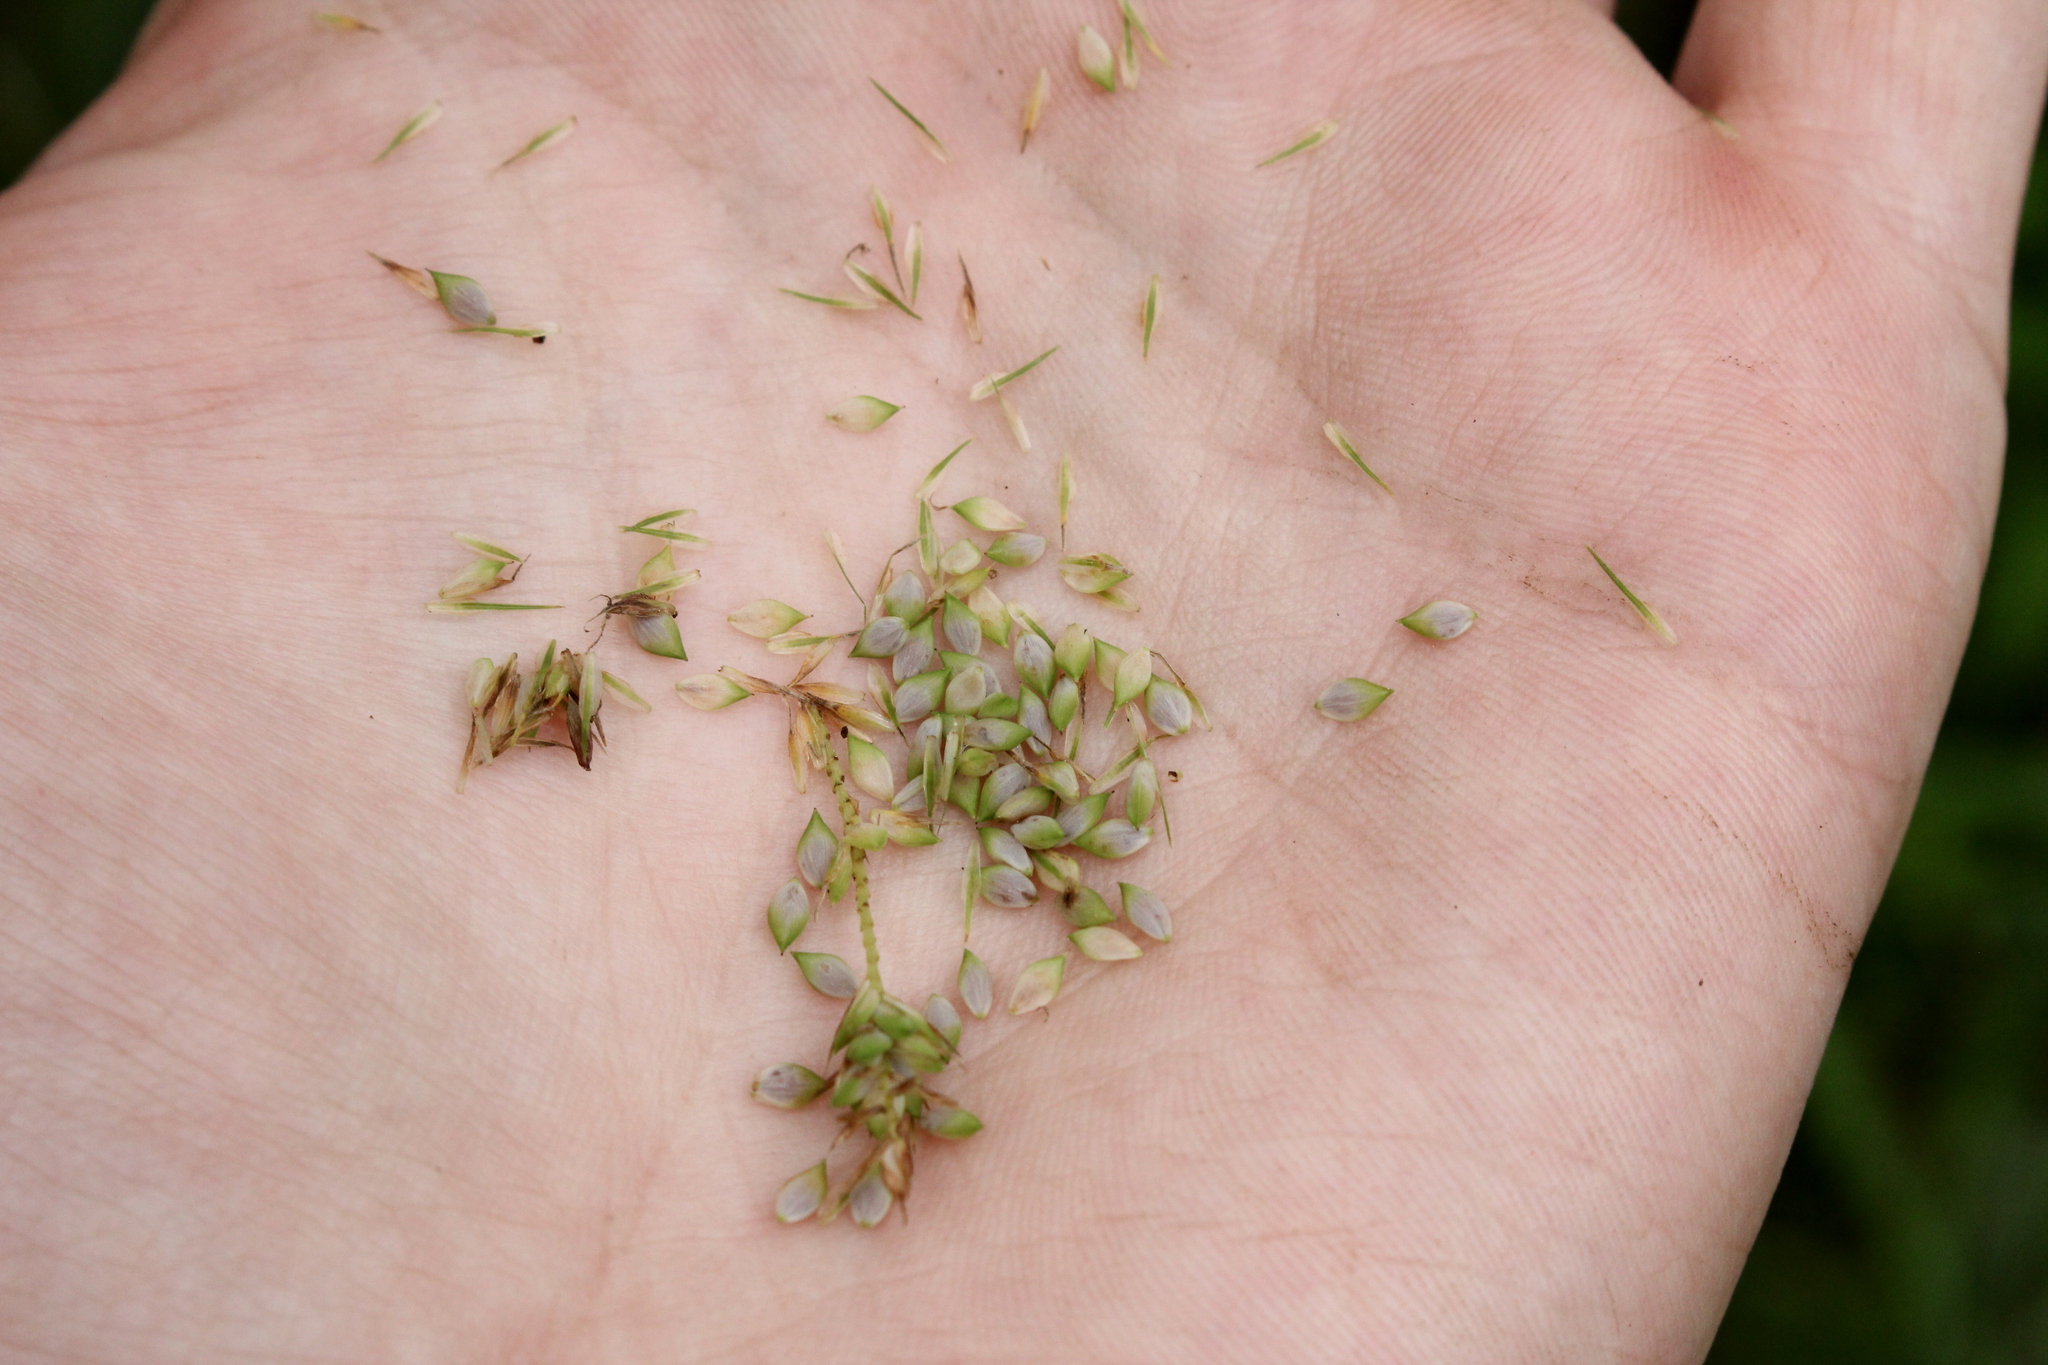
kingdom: Plantae
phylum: Tracheophyta
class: Liliopsida
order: Poales
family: Cyperaceae
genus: Carex
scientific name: Carex gynandra
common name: Nodding sedge
